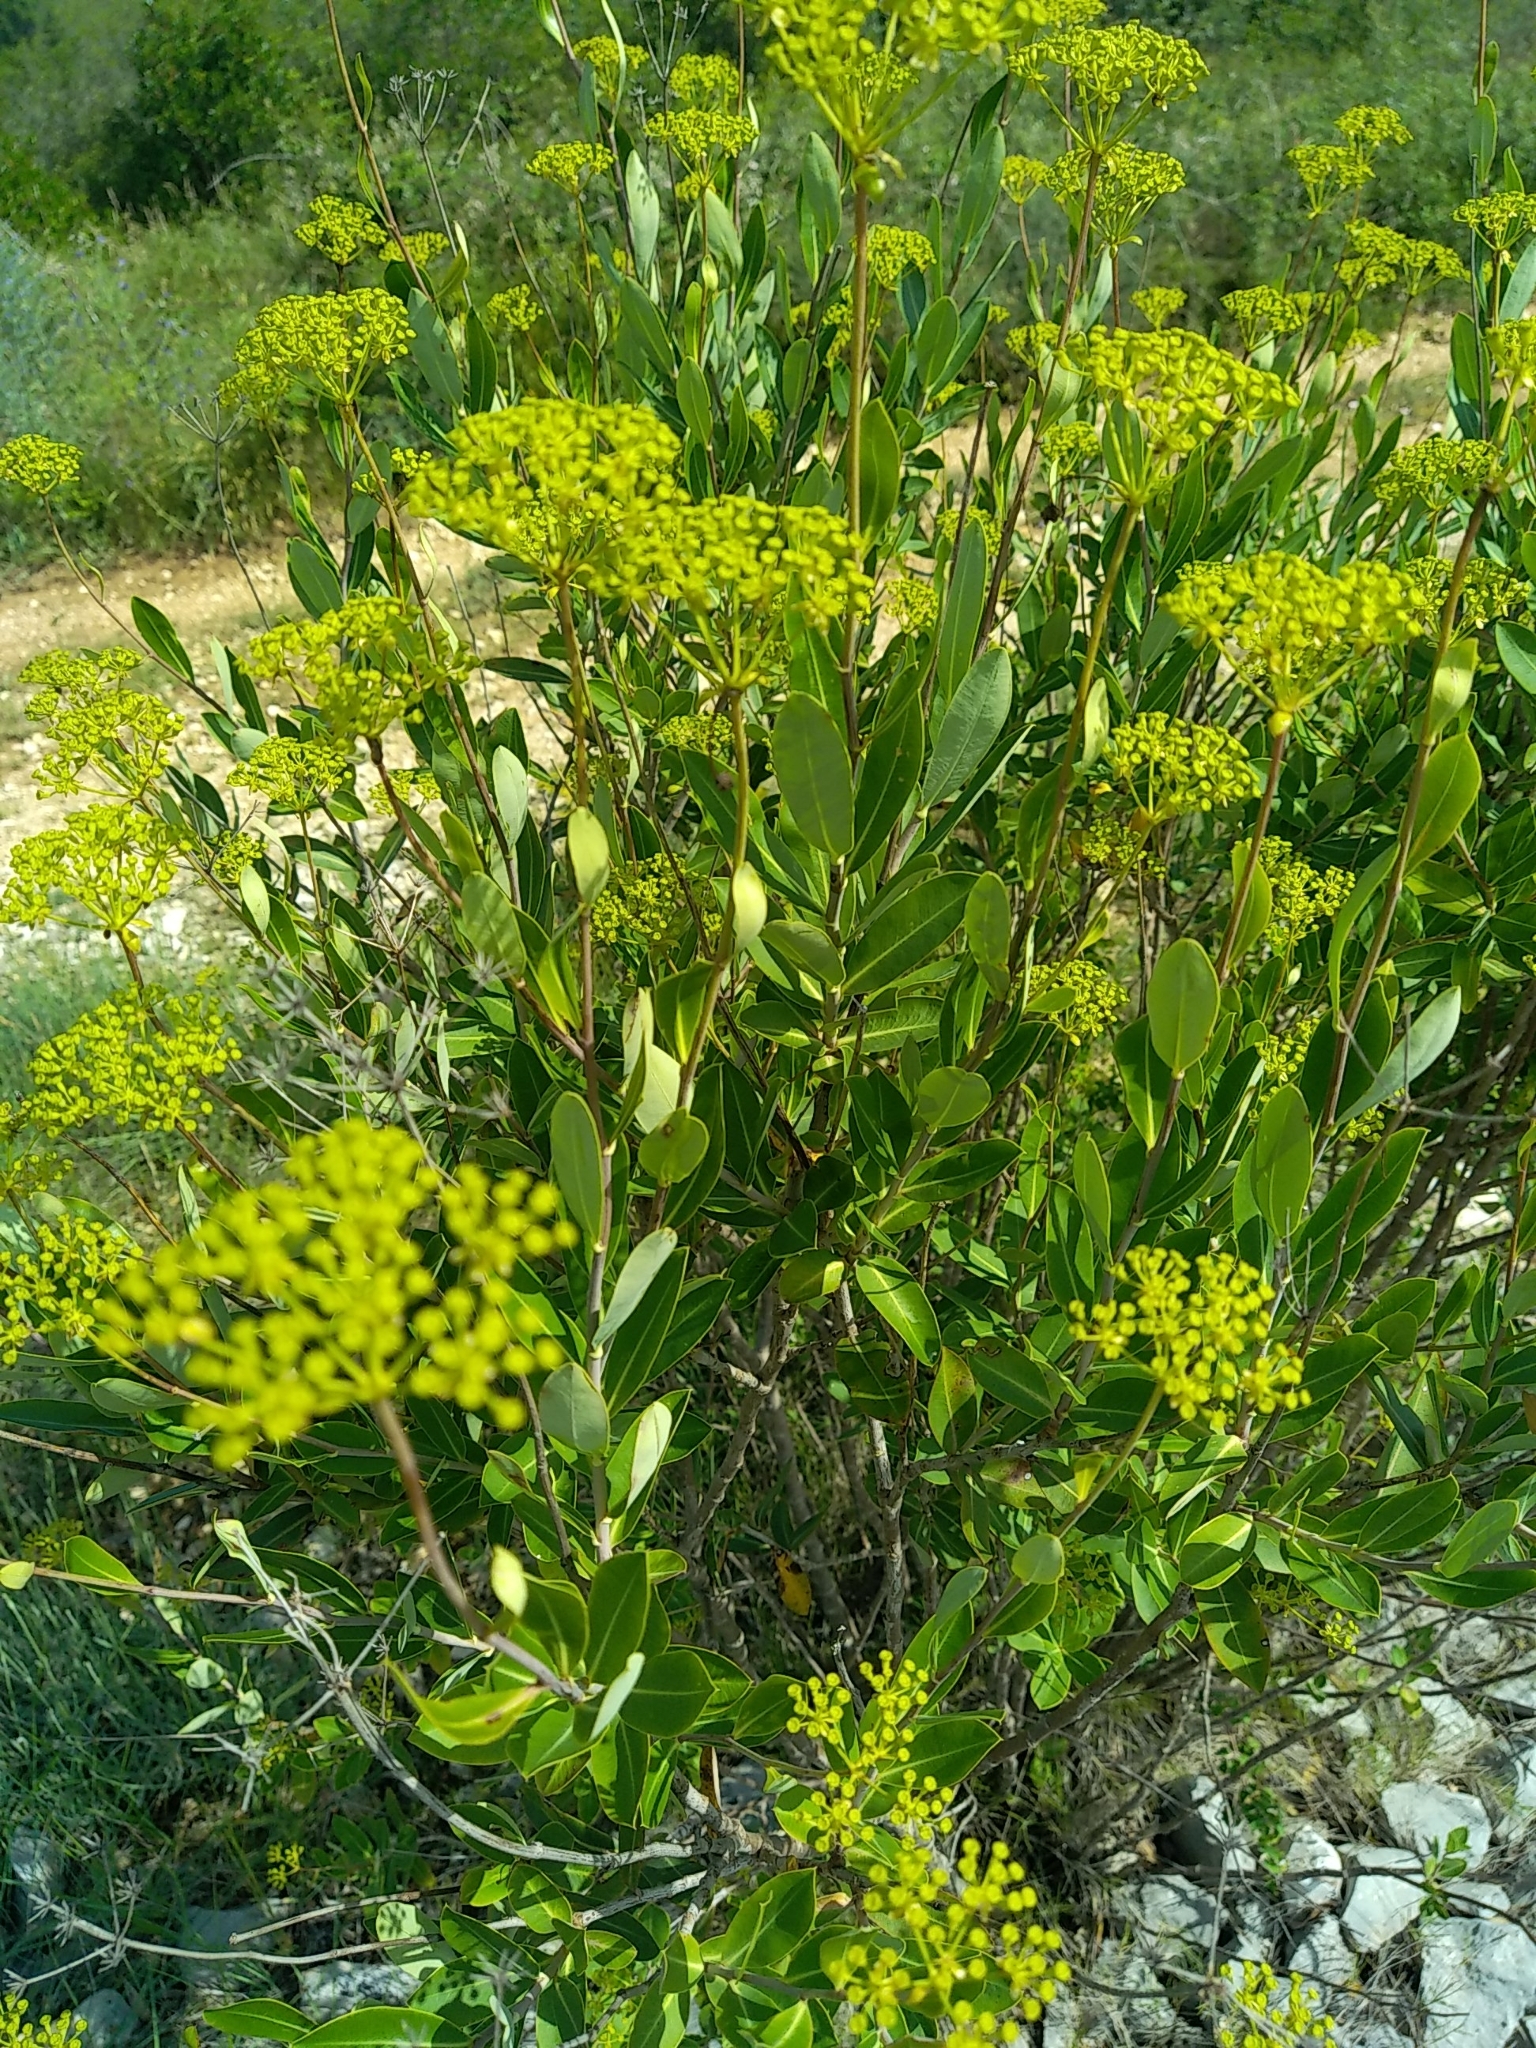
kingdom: Plantae
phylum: Tracheophyta
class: Magnoliopsida
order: Apiales
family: Apiaceae
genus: Bupleurum
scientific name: Bupleurum fruticosum
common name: Shrubby hare's-ear
